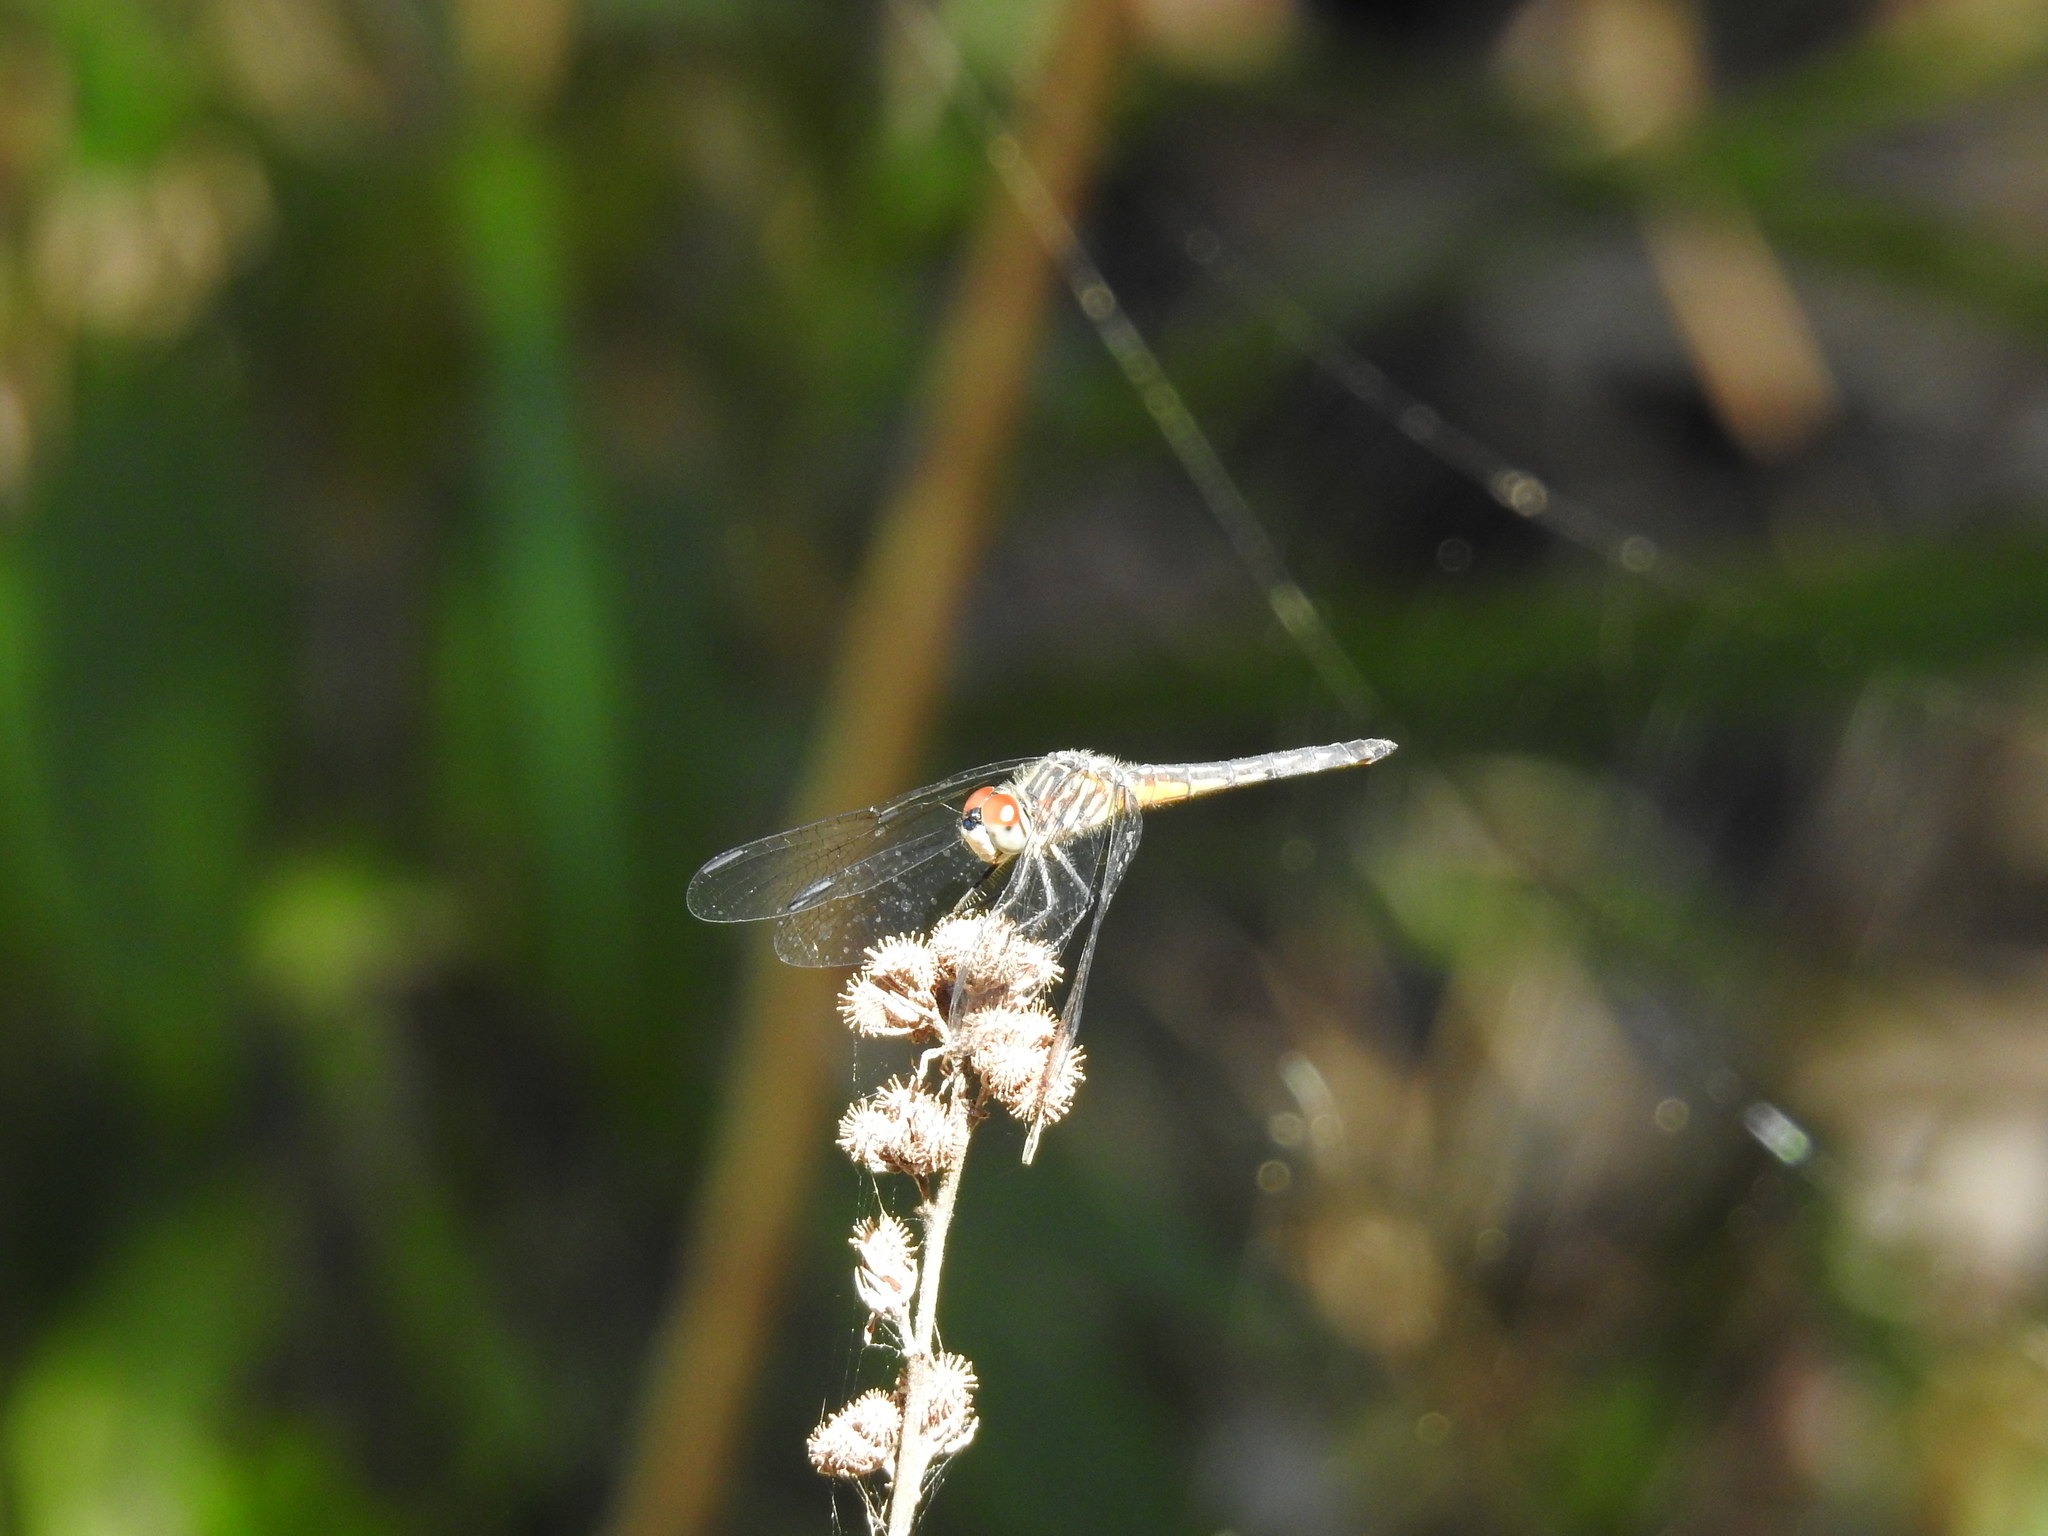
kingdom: Animalia
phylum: Arthropoda
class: Insecta
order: Odonata
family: Libellulidae
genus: Pachydiplax
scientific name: Pachydiplax longipennis
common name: Blue dasher
